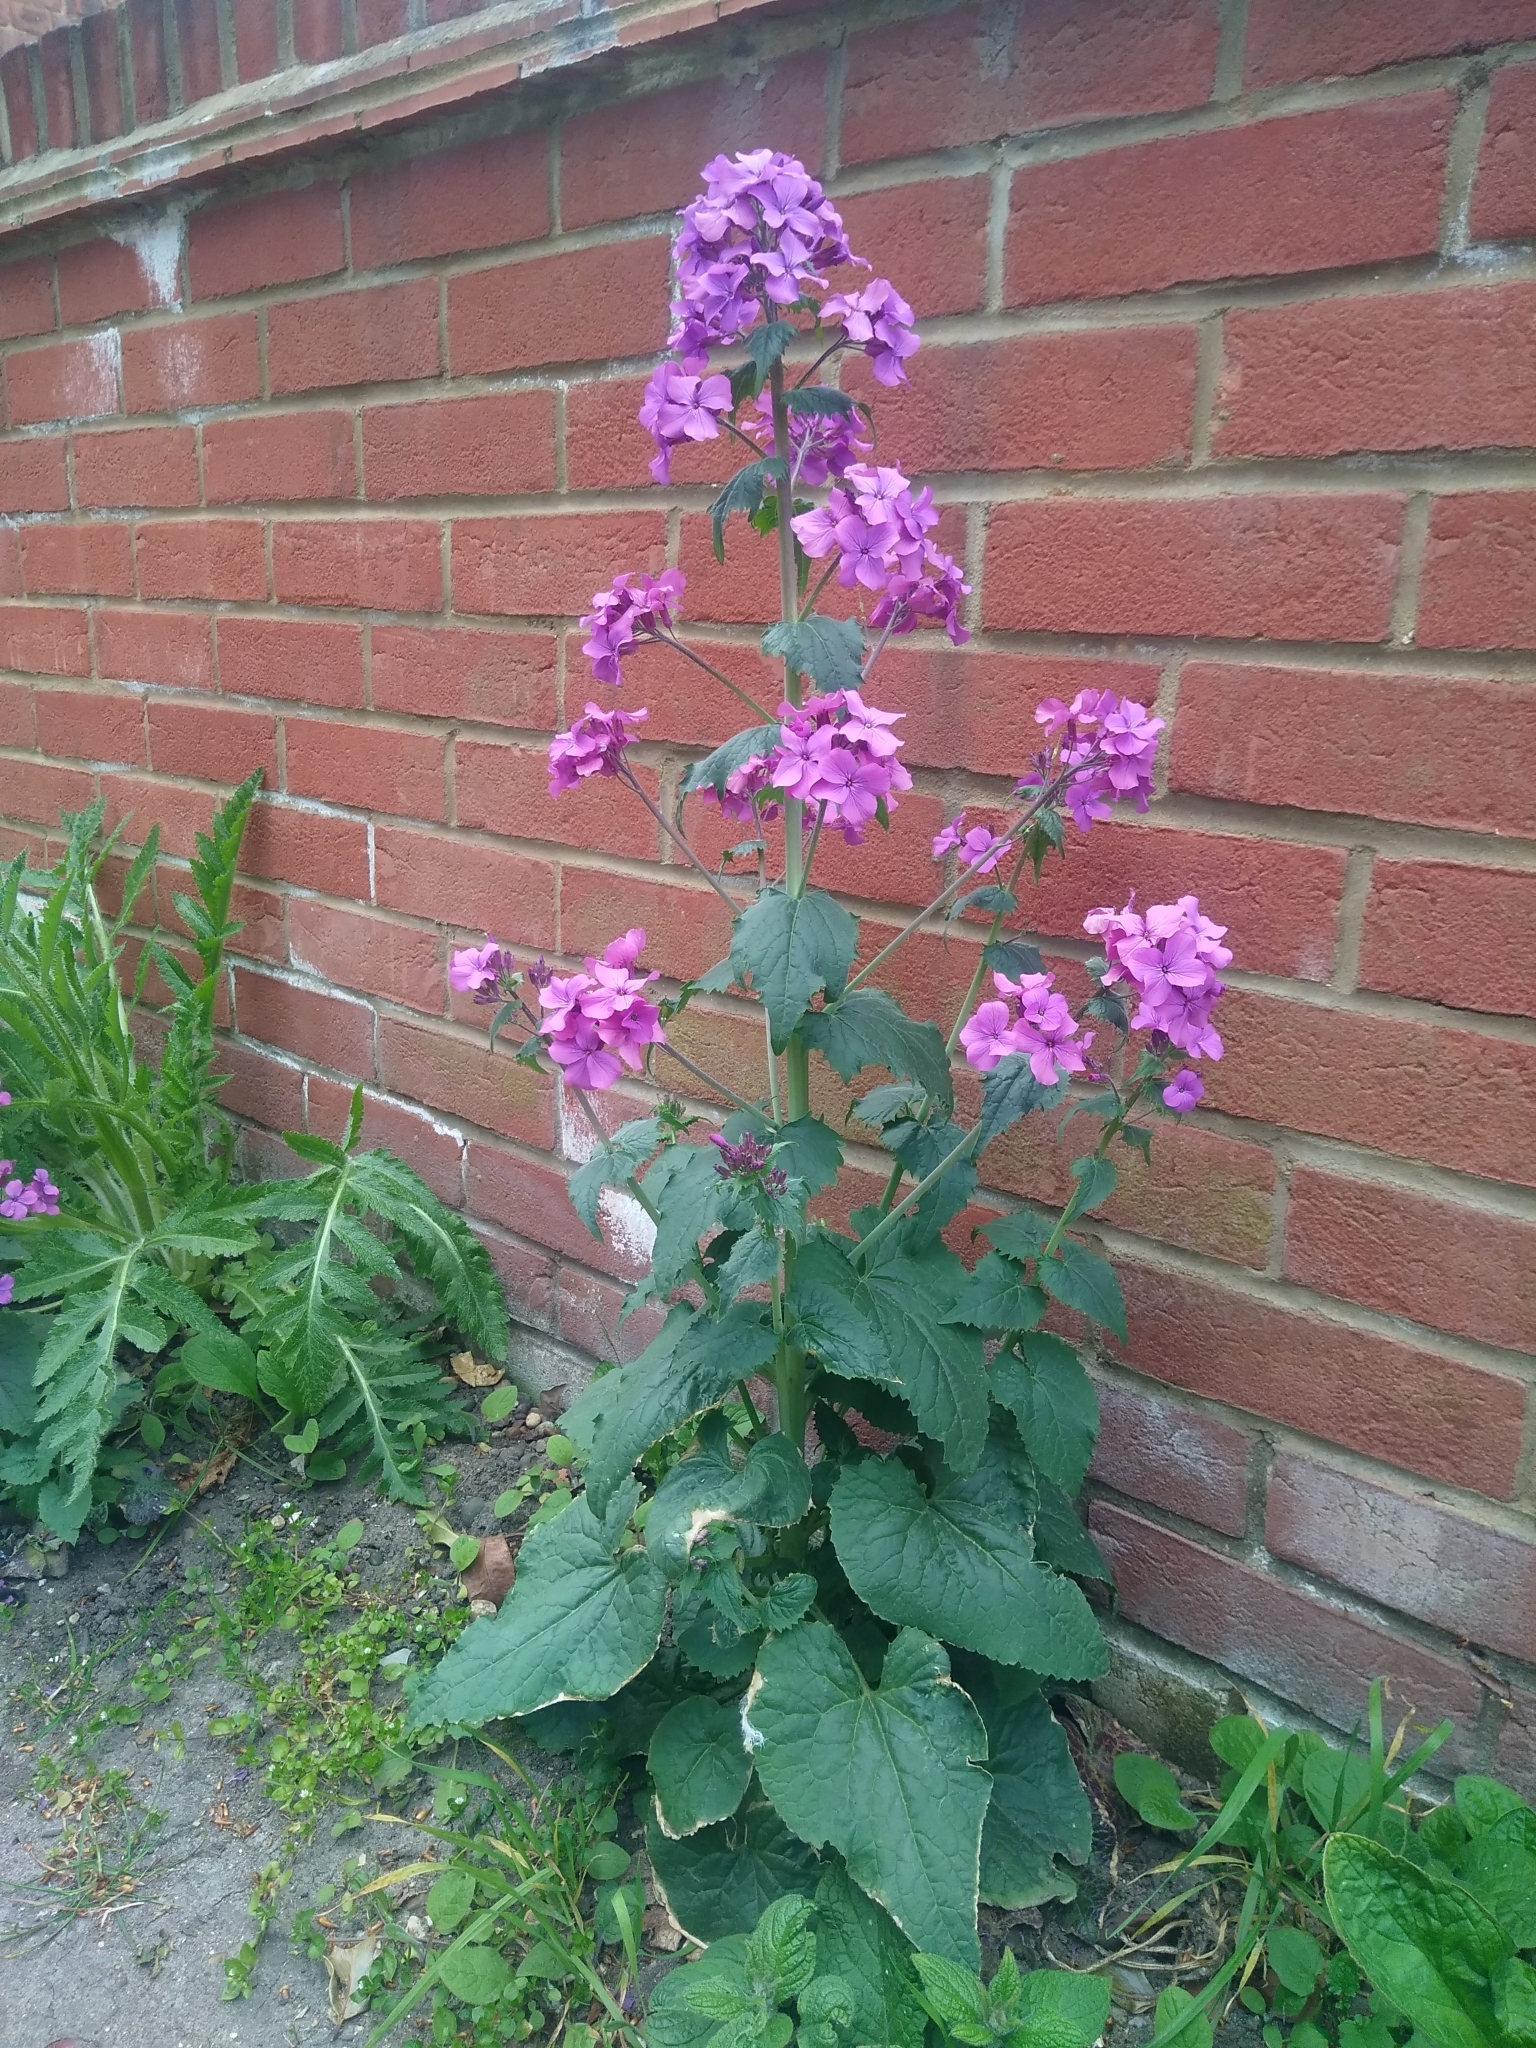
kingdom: Plantae
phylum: Tracheophyta
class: Magnoliopsida
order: Brassicales
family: Brassicaceae
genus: Lunaria
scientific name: Lunaria annua
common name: Honesty
